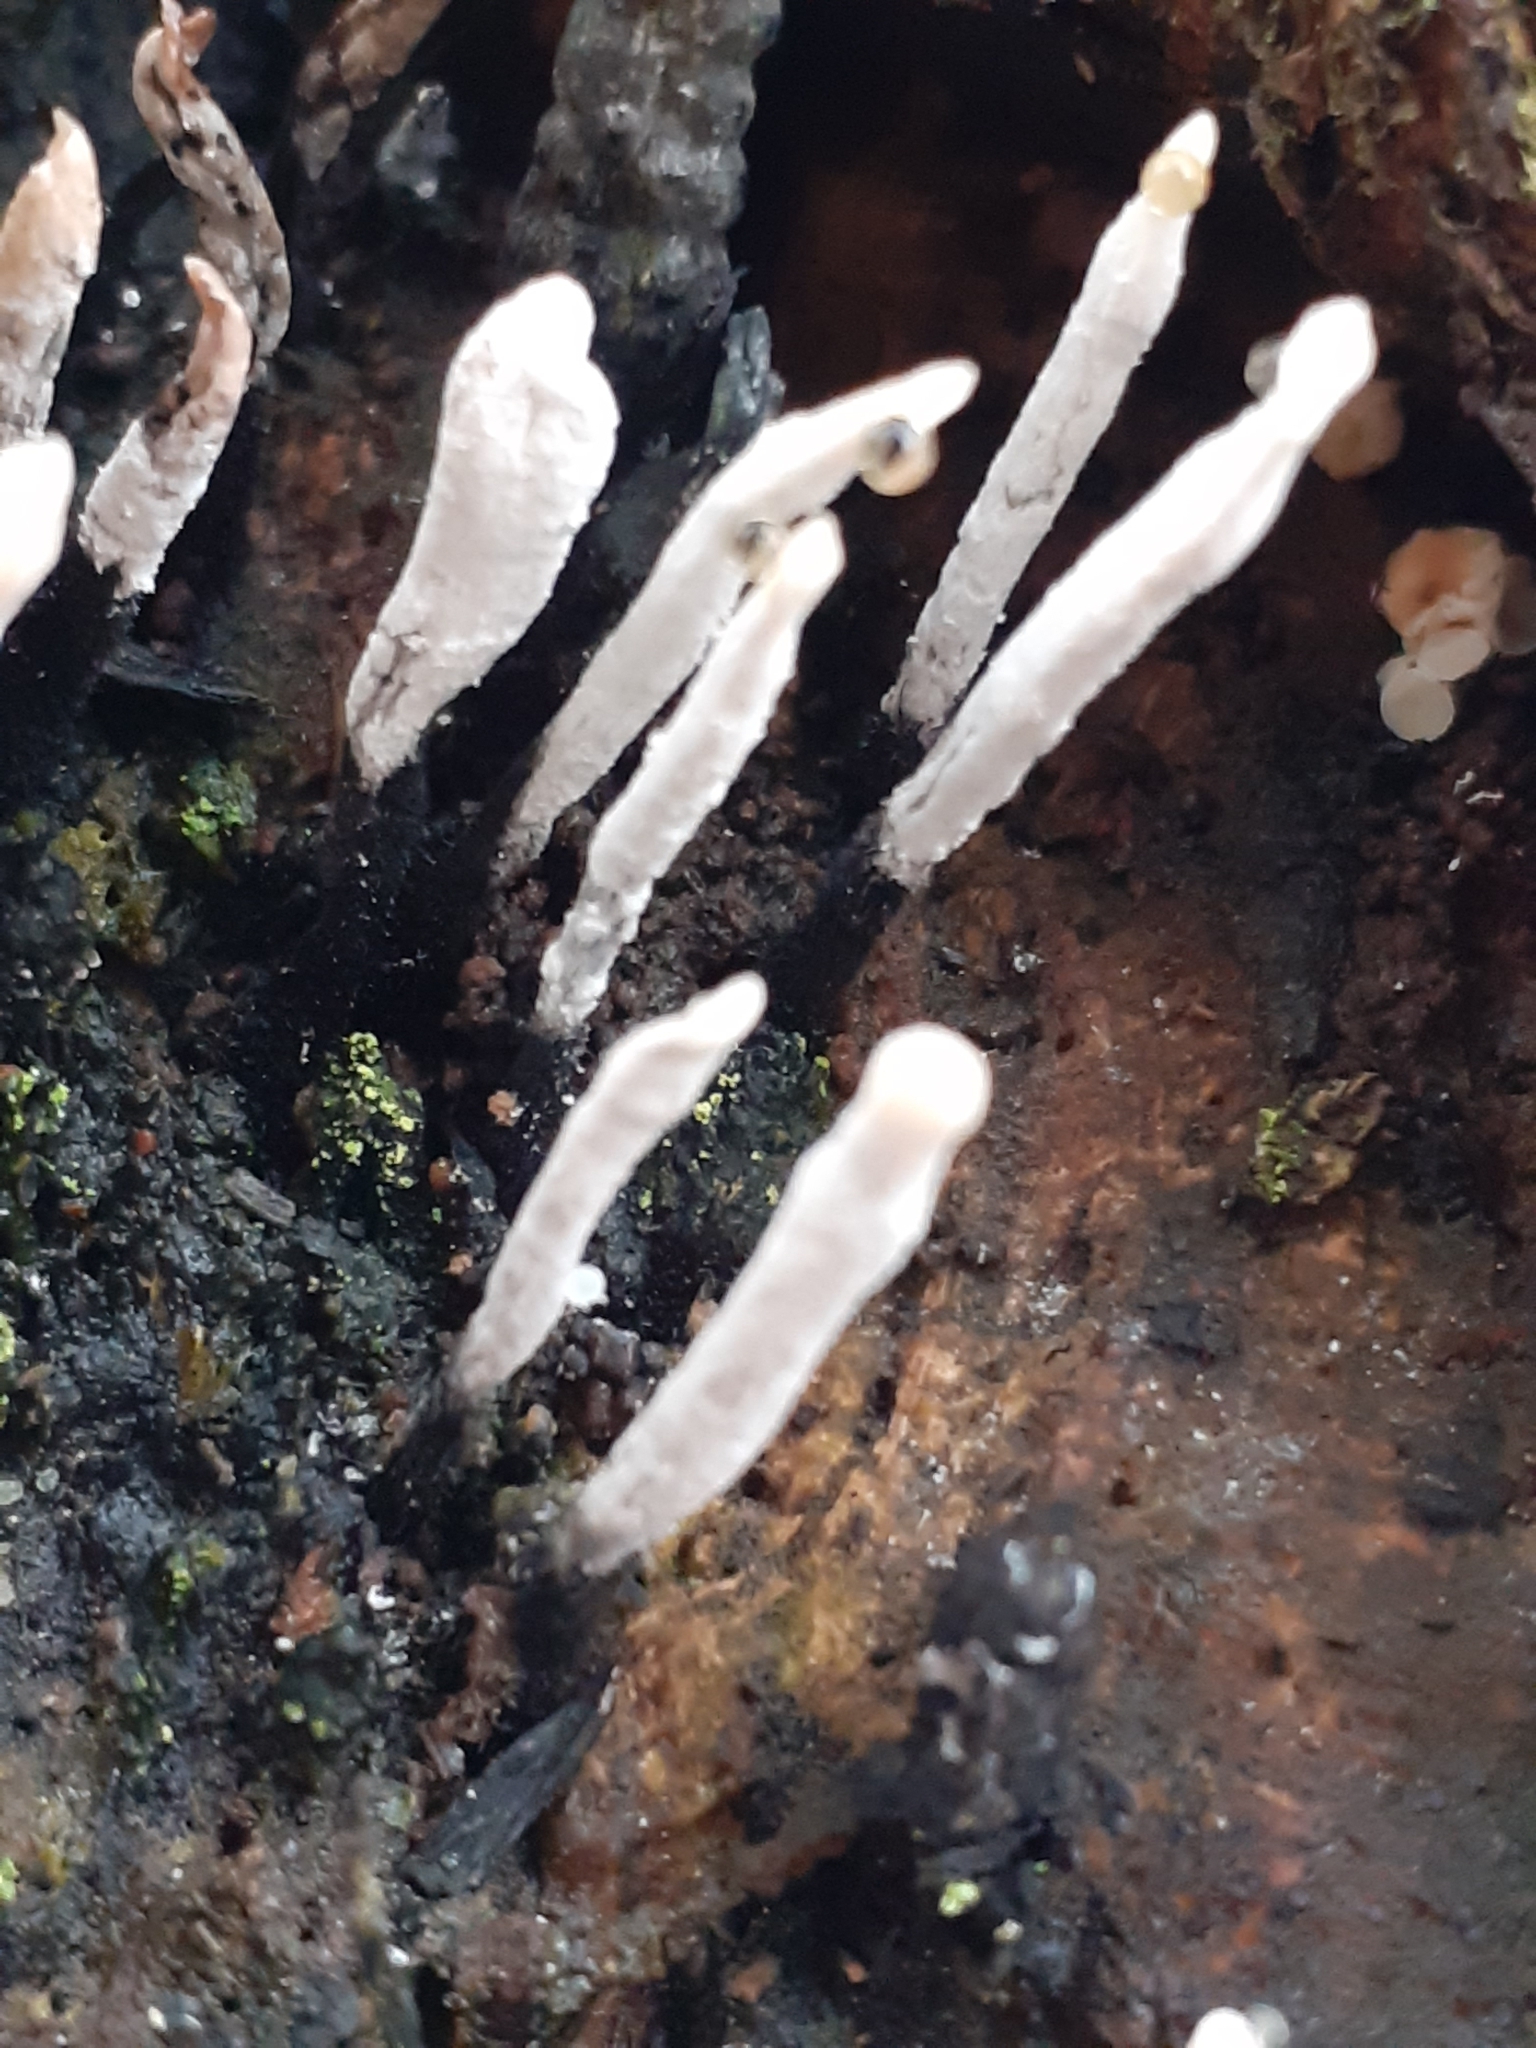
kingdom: Fungi
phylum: Ascomycota
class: Sordariomycetes
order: Xylariales
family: Xylariaceae
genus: Xylaria
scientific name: Xylaria hypoxylon
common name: Candle-snuff fungus
